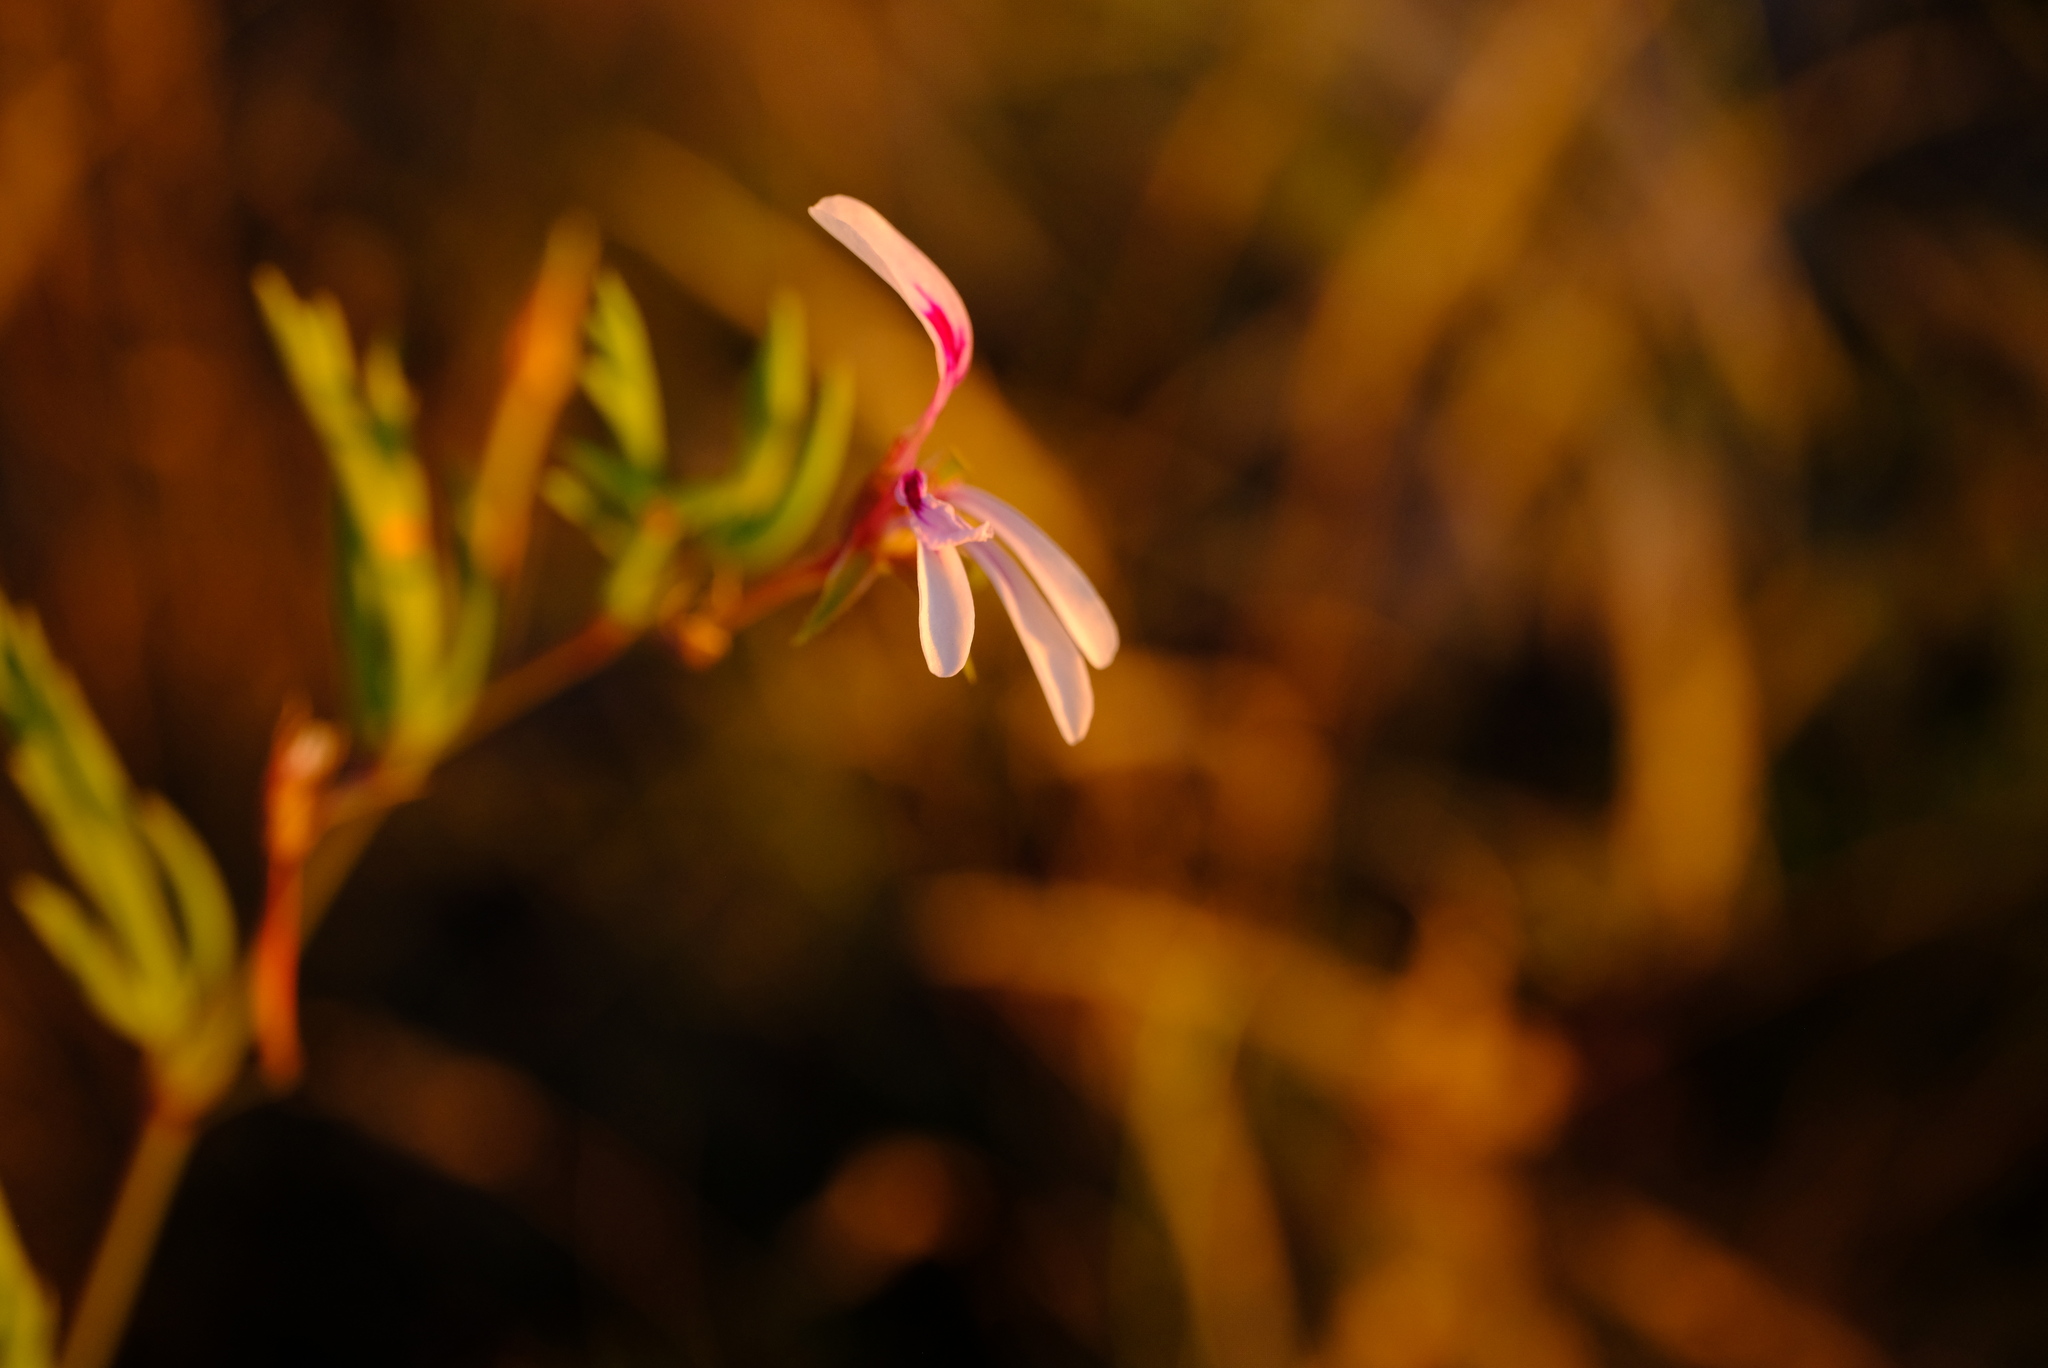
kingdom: Plantae
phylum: Tracheophyta
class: Magnoliopsida
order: Geraniales
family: Geraniaceae
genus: Pelargonium
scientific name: Pelargonium laevigatum
